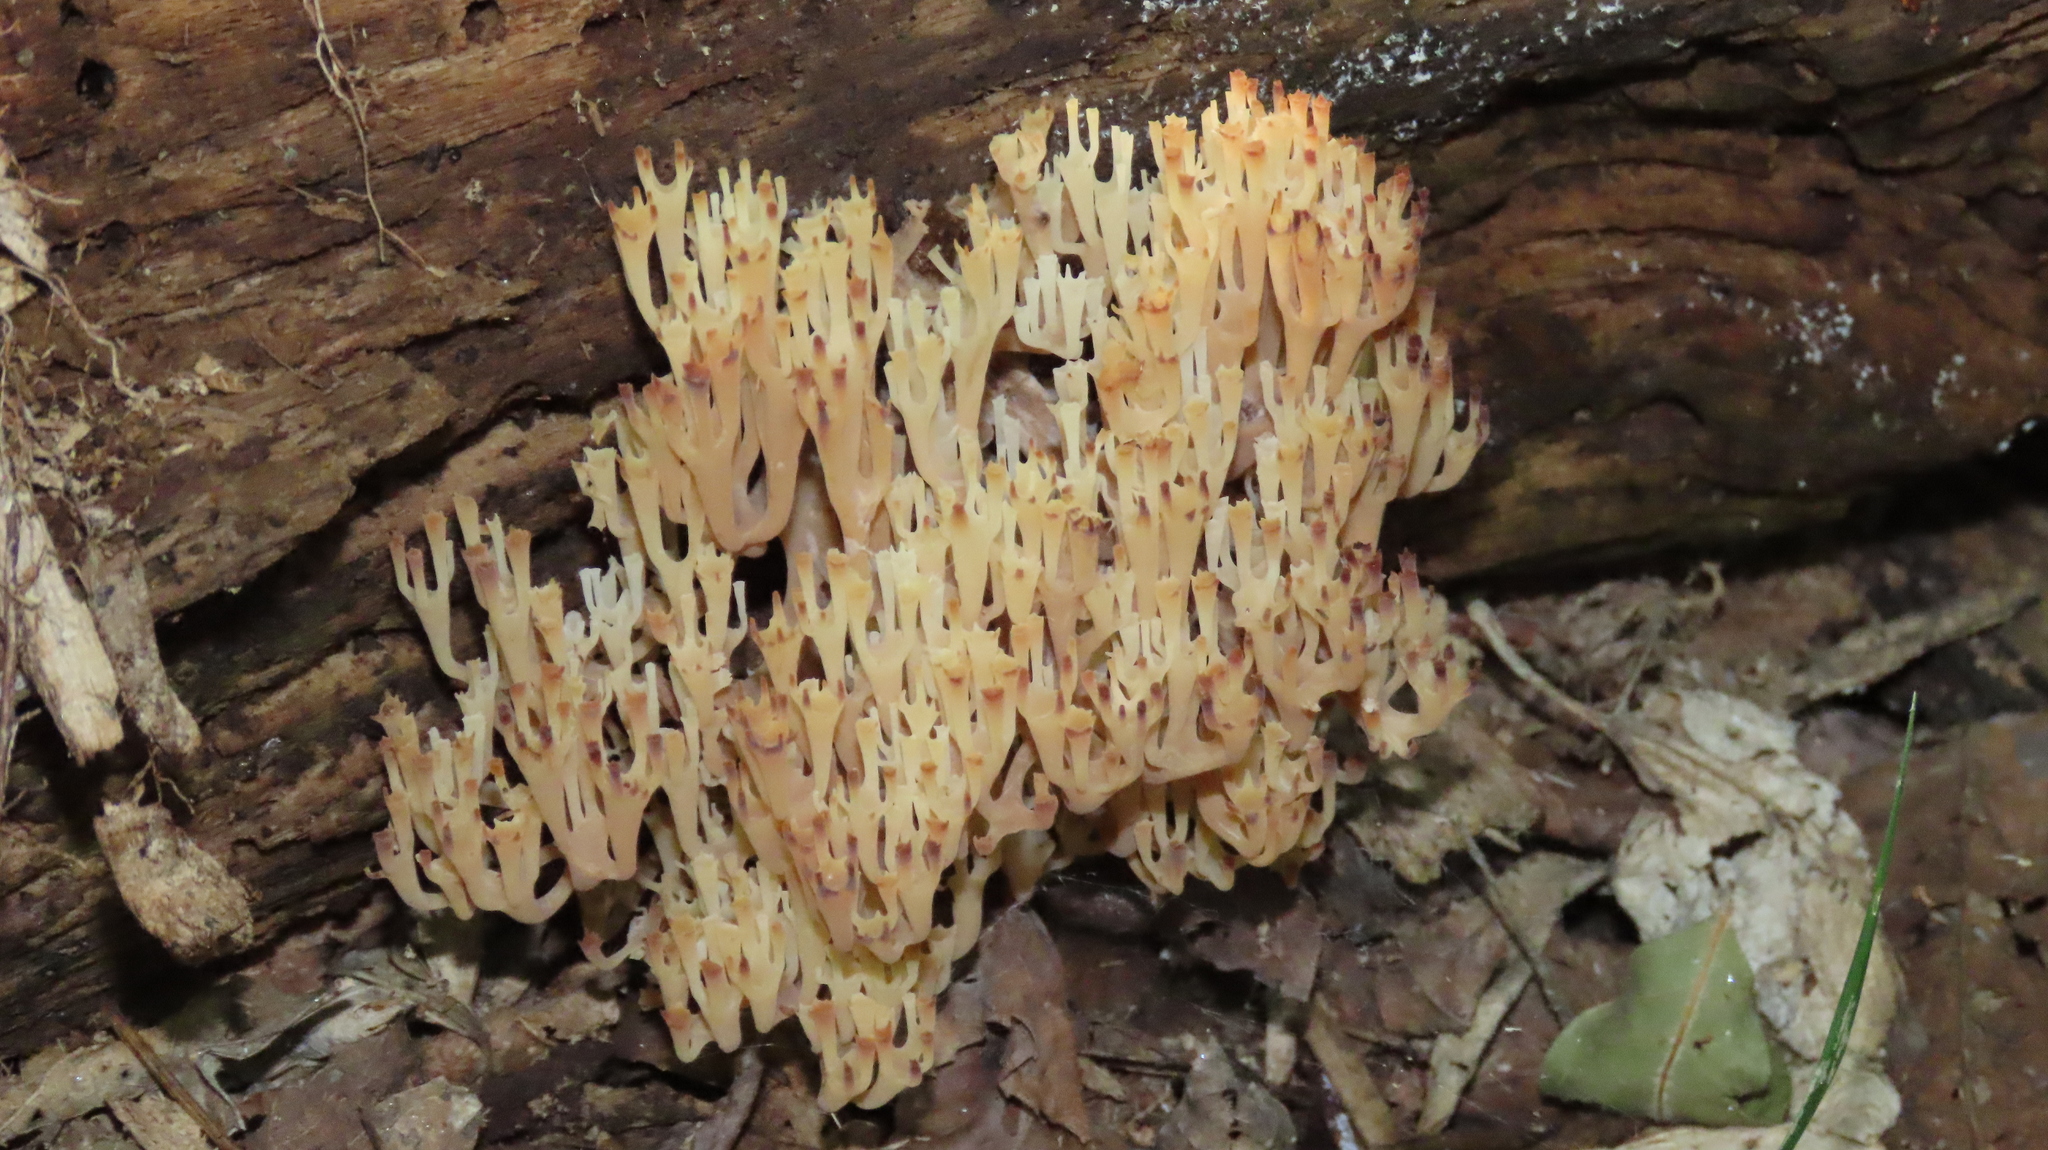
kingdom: Fungi
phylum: Basidiomycota
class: Agaricomycetes
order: Russulales
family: Auriscalpiaceae
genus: Artomyces
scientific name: Artomyces pyxidatus
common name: Crown-tipped coral fungus
